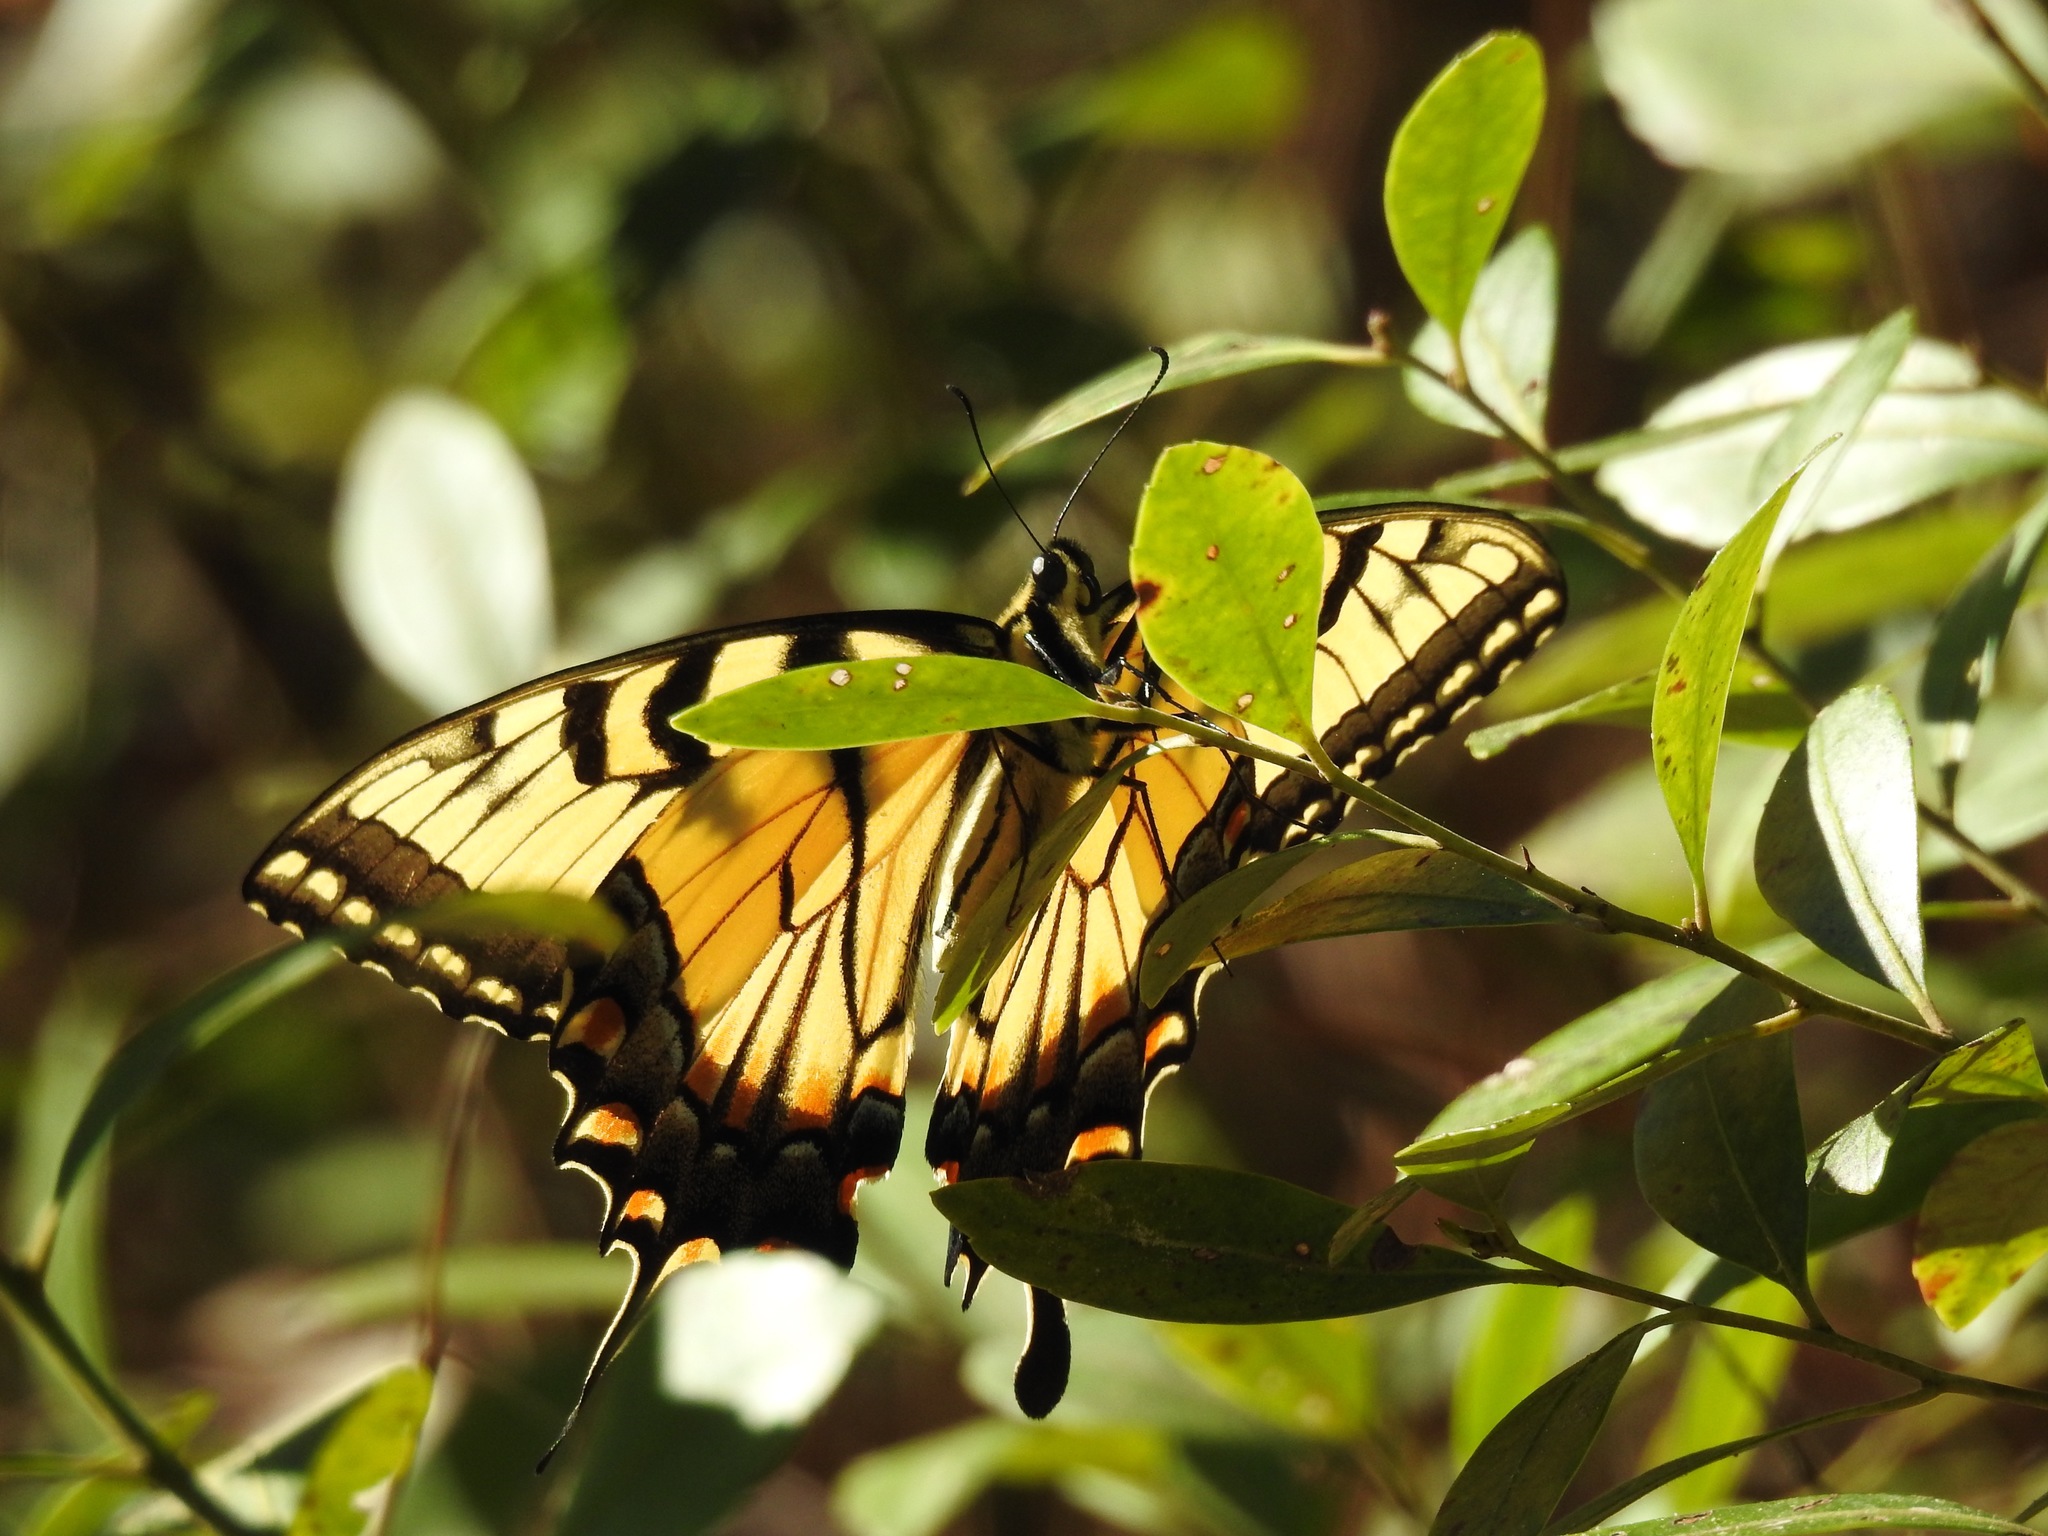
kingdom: Animalia
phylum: Arthropoda
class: Insecta
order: Lepidoptera
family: Papilionidae
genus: Papilio
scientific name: Papilio glaucus
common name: Tiger swallowtail
